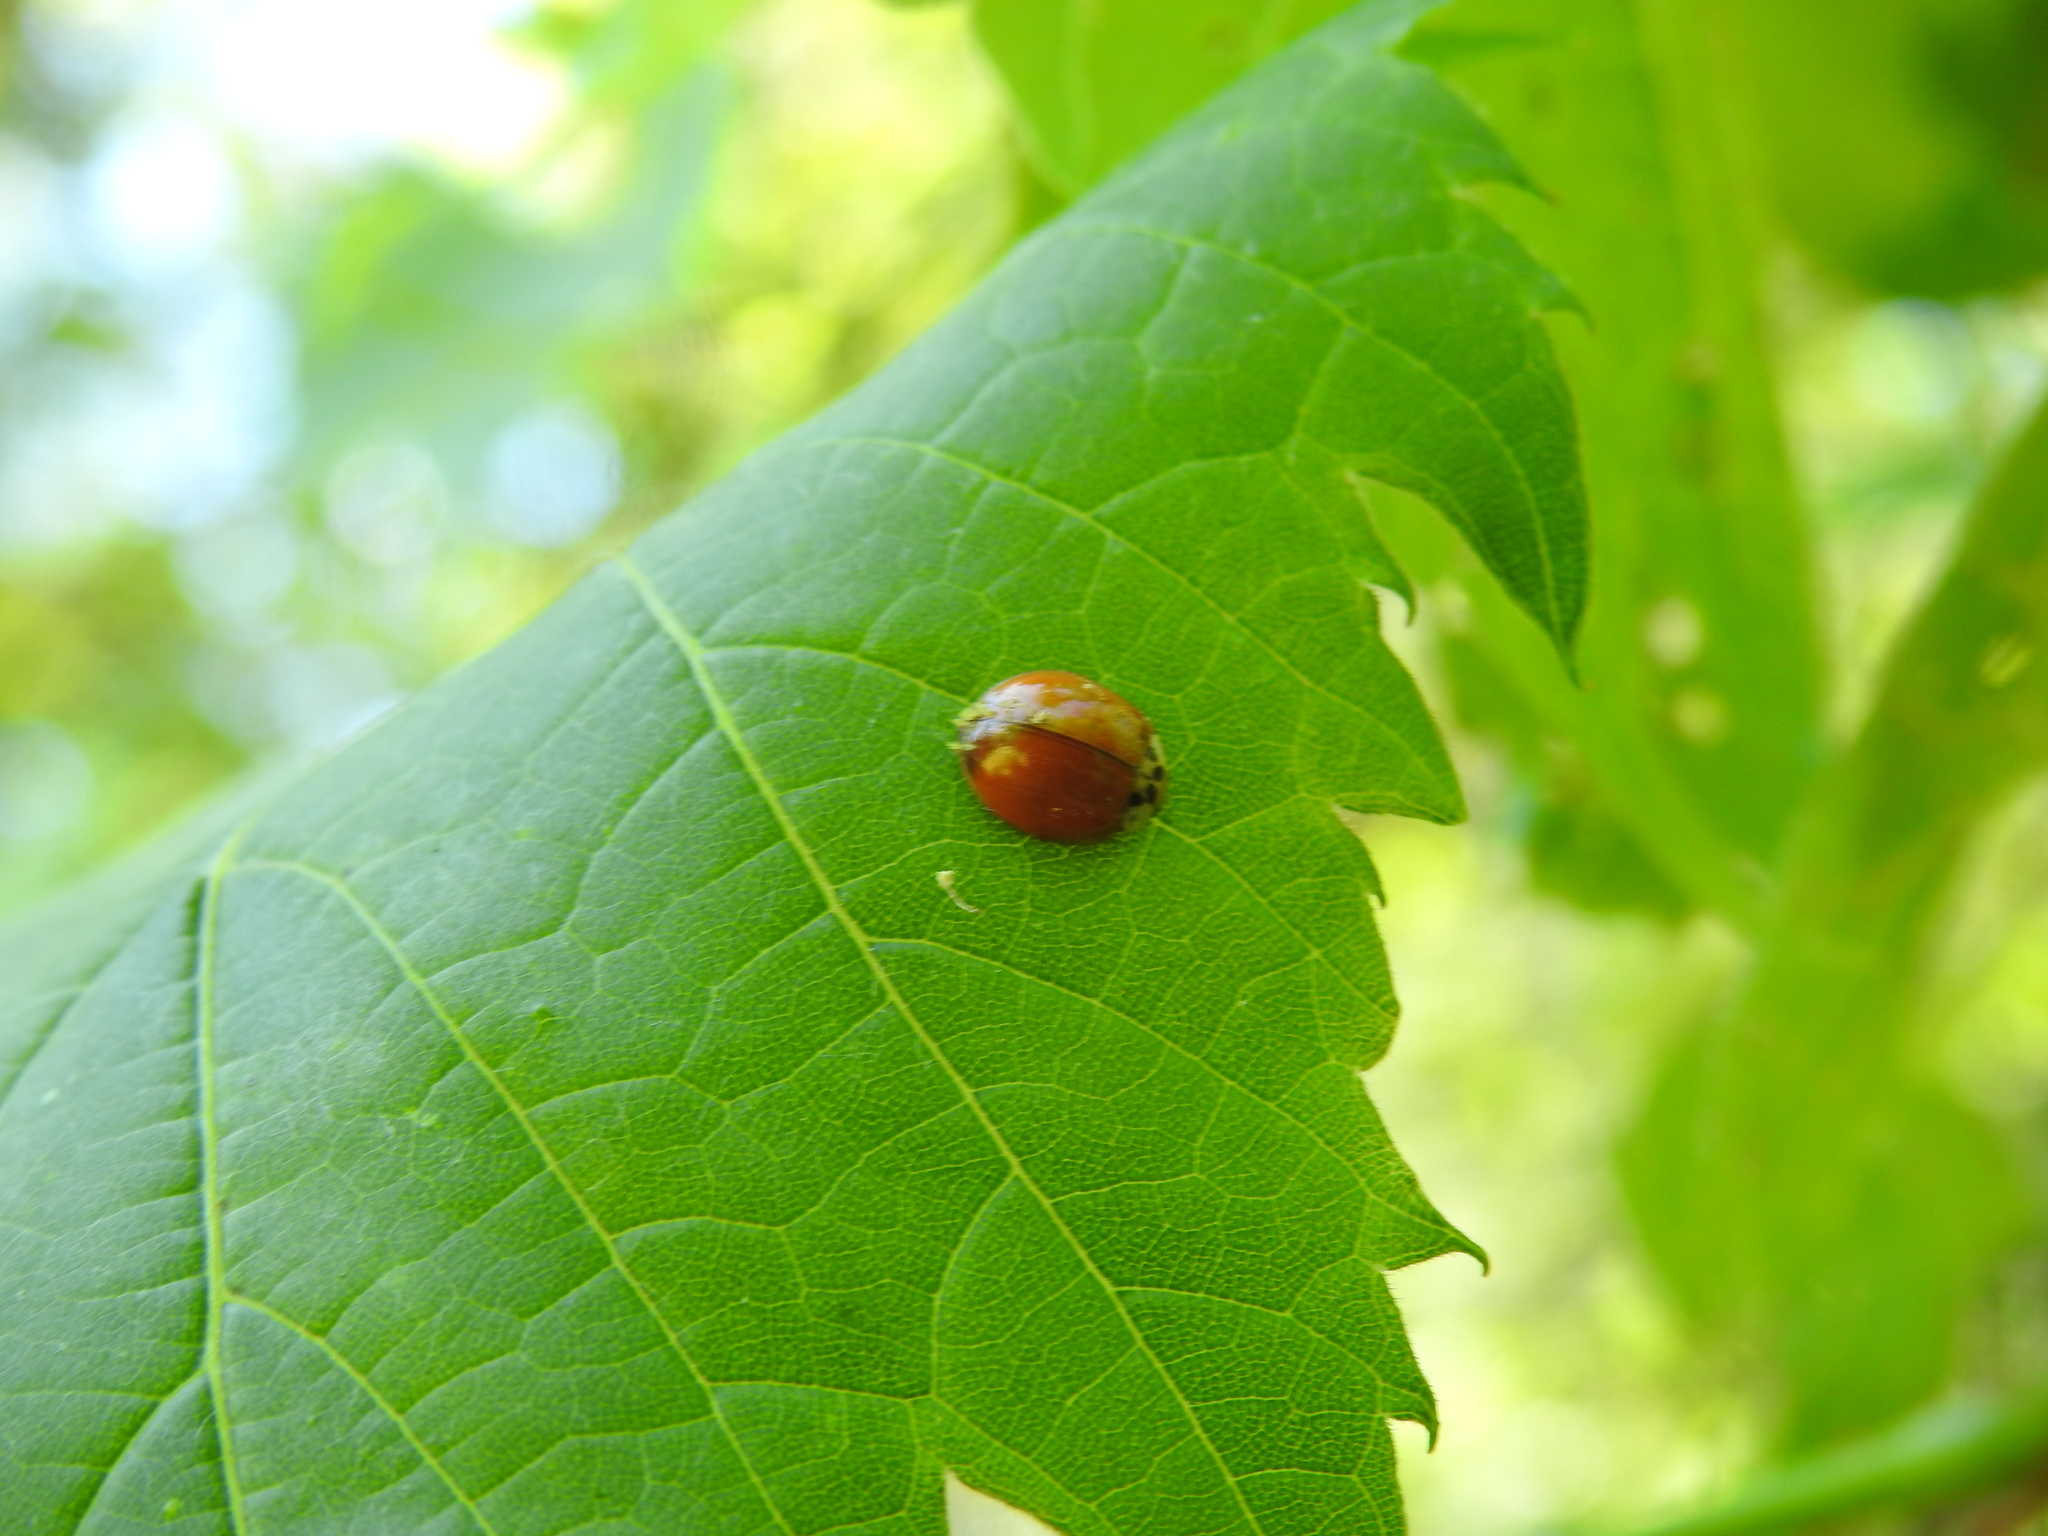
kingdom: Animalia
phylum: Arthropoda
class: Insecta
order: Coleoptera
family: Coccinellidae
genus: Harmonia
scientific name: Harmonia axyridis
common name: Harlequin ladybird
